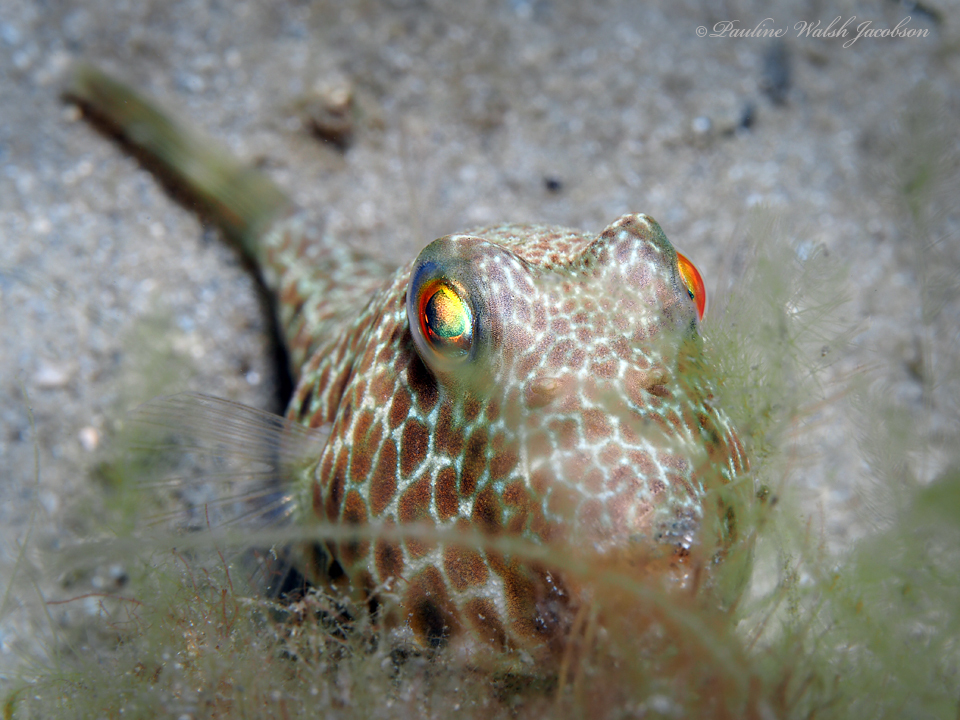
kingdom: Animalia
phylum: Chordata
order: Tetraodontiformes
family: Tetraodontidae
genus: Sphoeroides
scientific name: Sphoeroides nephelus
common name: Southern puffer
